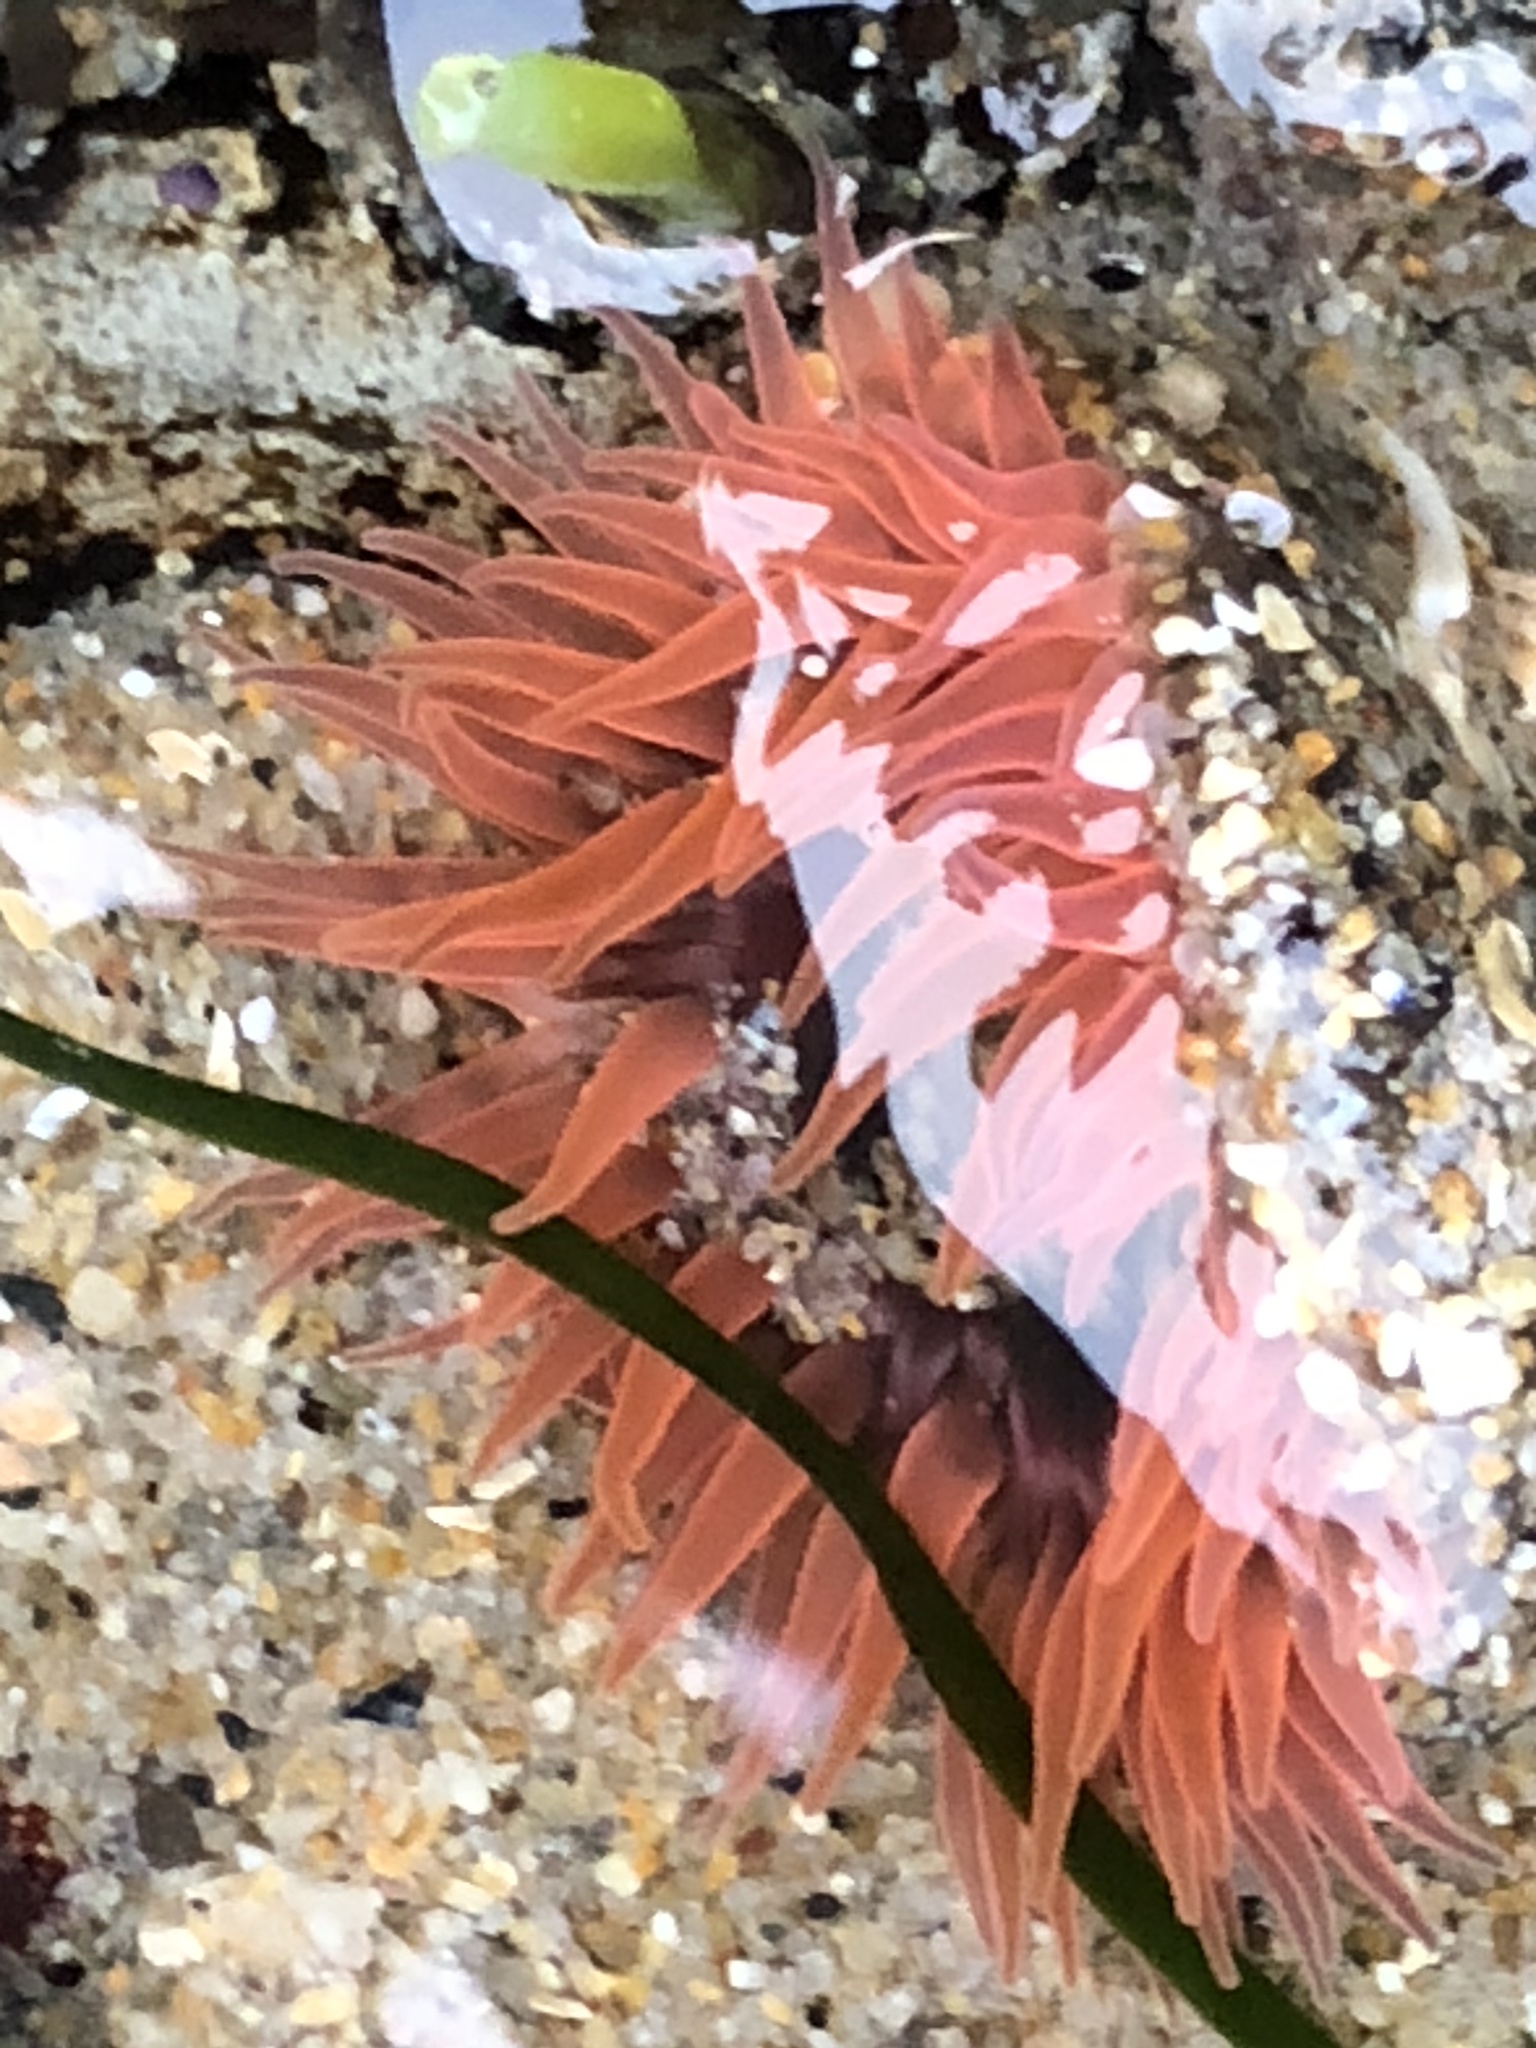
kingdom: Animalia
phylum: Cnidaria
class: Anthozoa
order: Actiniaria
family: Actiniidae
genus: Anthopleura
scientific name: Anthopleura artemisia
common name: Buried sea anemone
